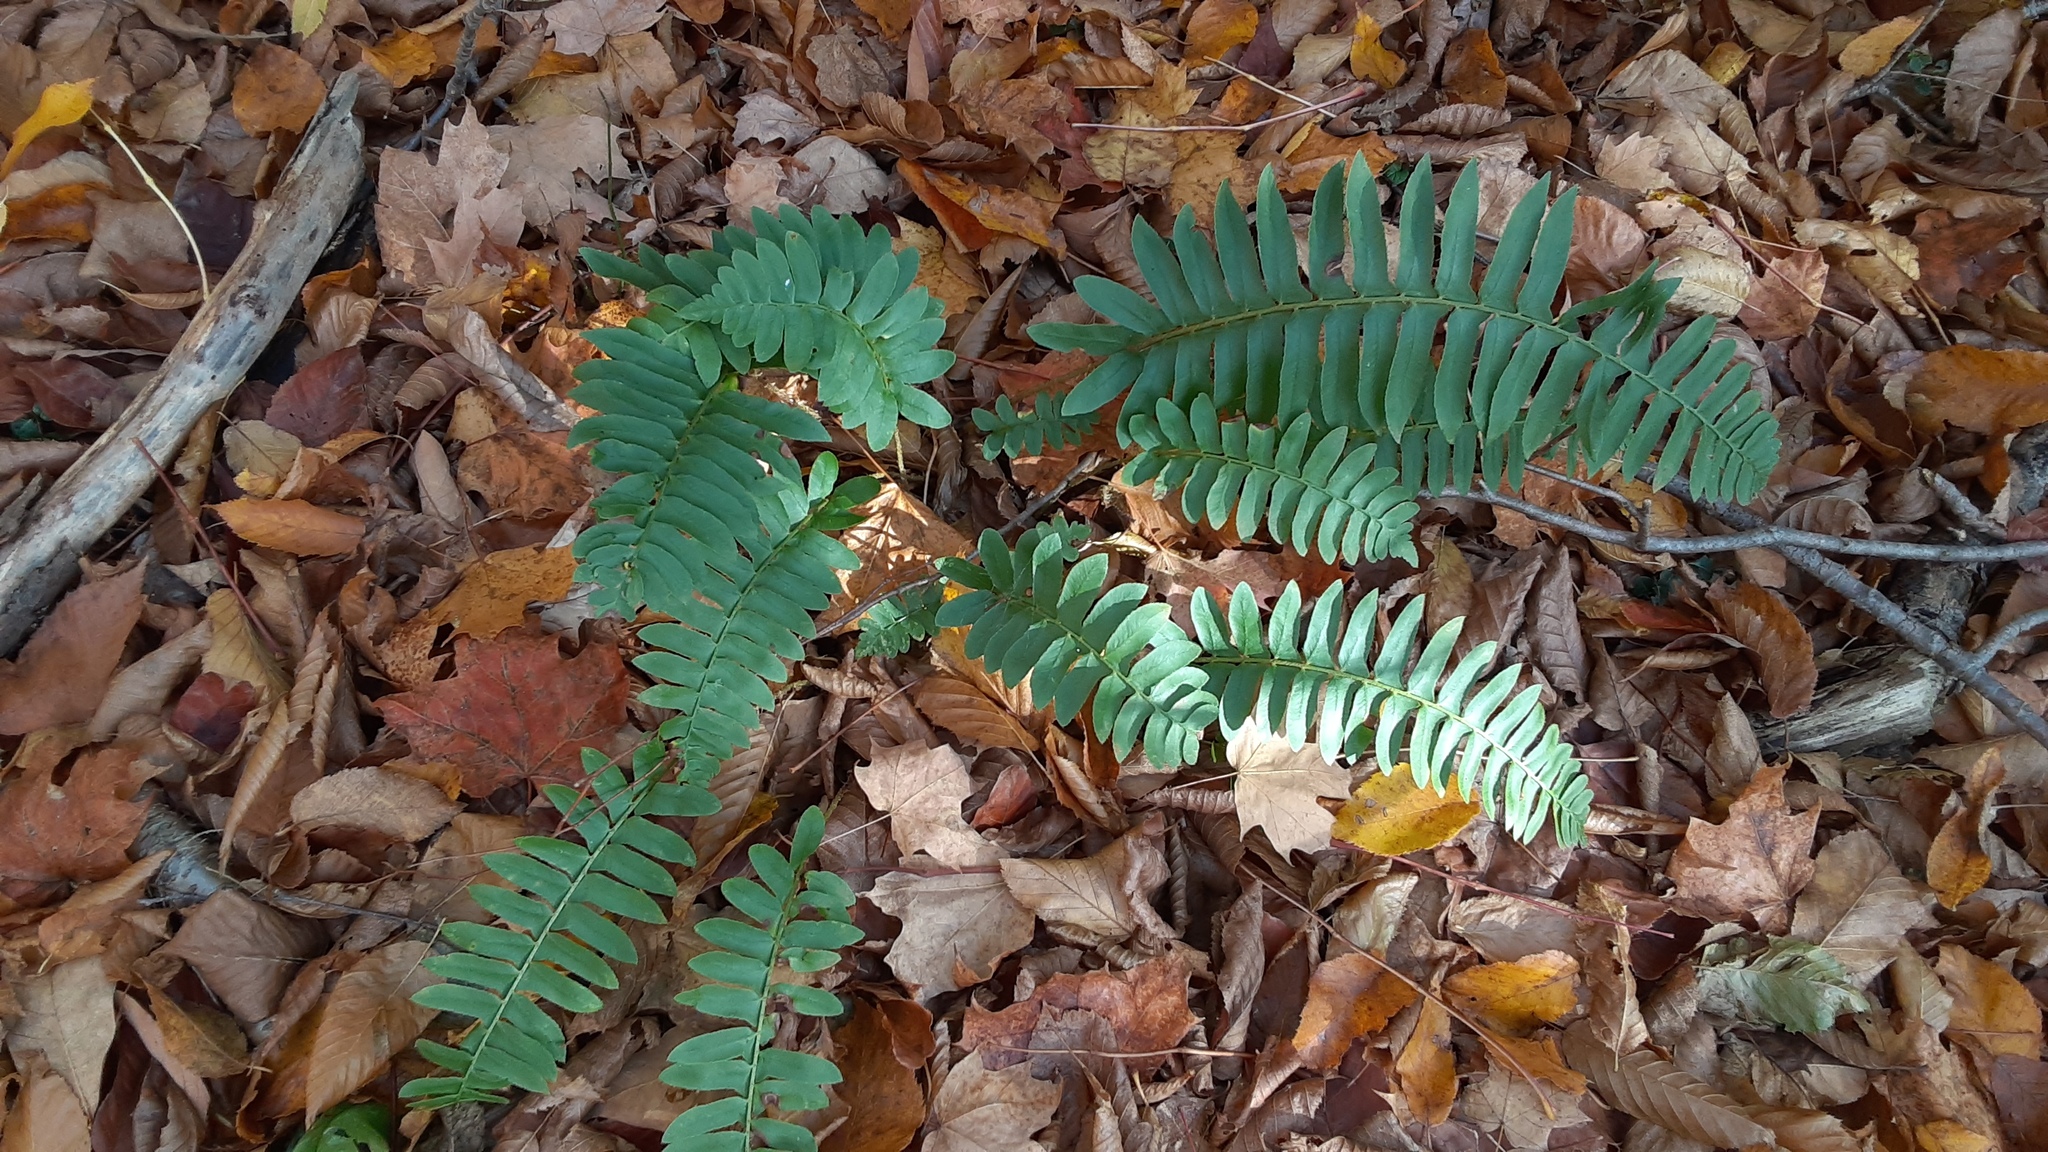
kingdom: Plantae
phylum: Tracheophyta
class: Polypodiopsida
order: Polypodiales
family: Dryopteridaceae
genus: Polystichum
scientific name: Polystichum acrostichoides
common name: Christmas fern
